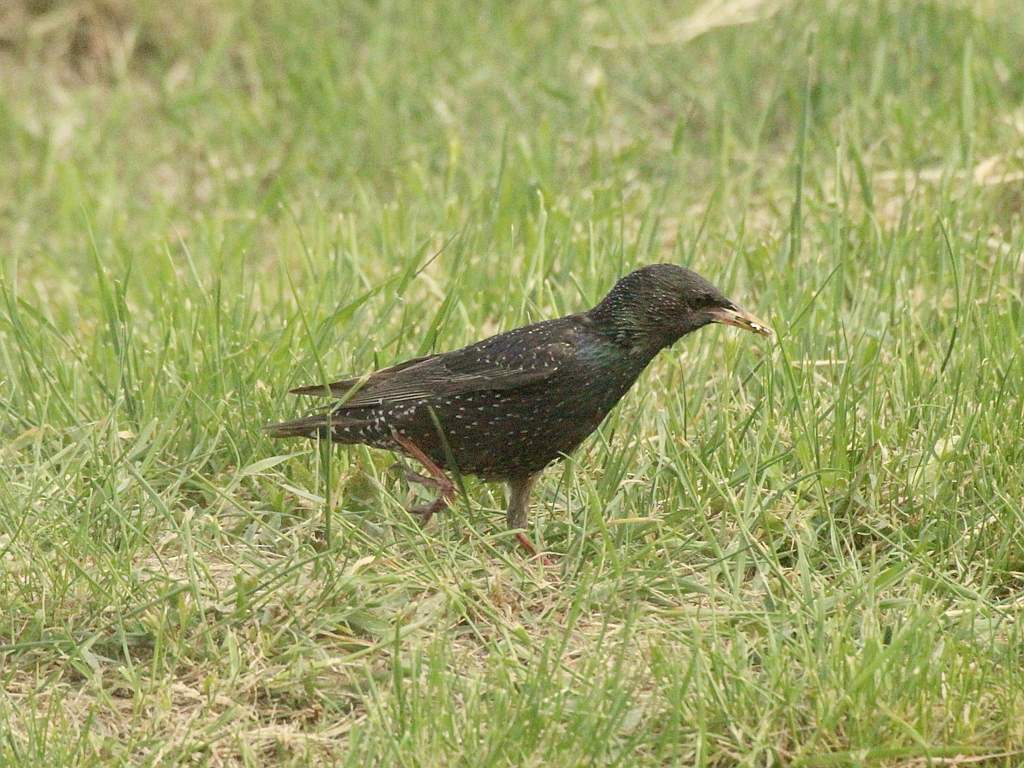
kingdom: Animalia
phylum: Chordata
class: Aves
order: Passeriformes
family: Sturnidae
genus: Sturnus
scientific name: Sturnus vulgaris
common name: Common starling
